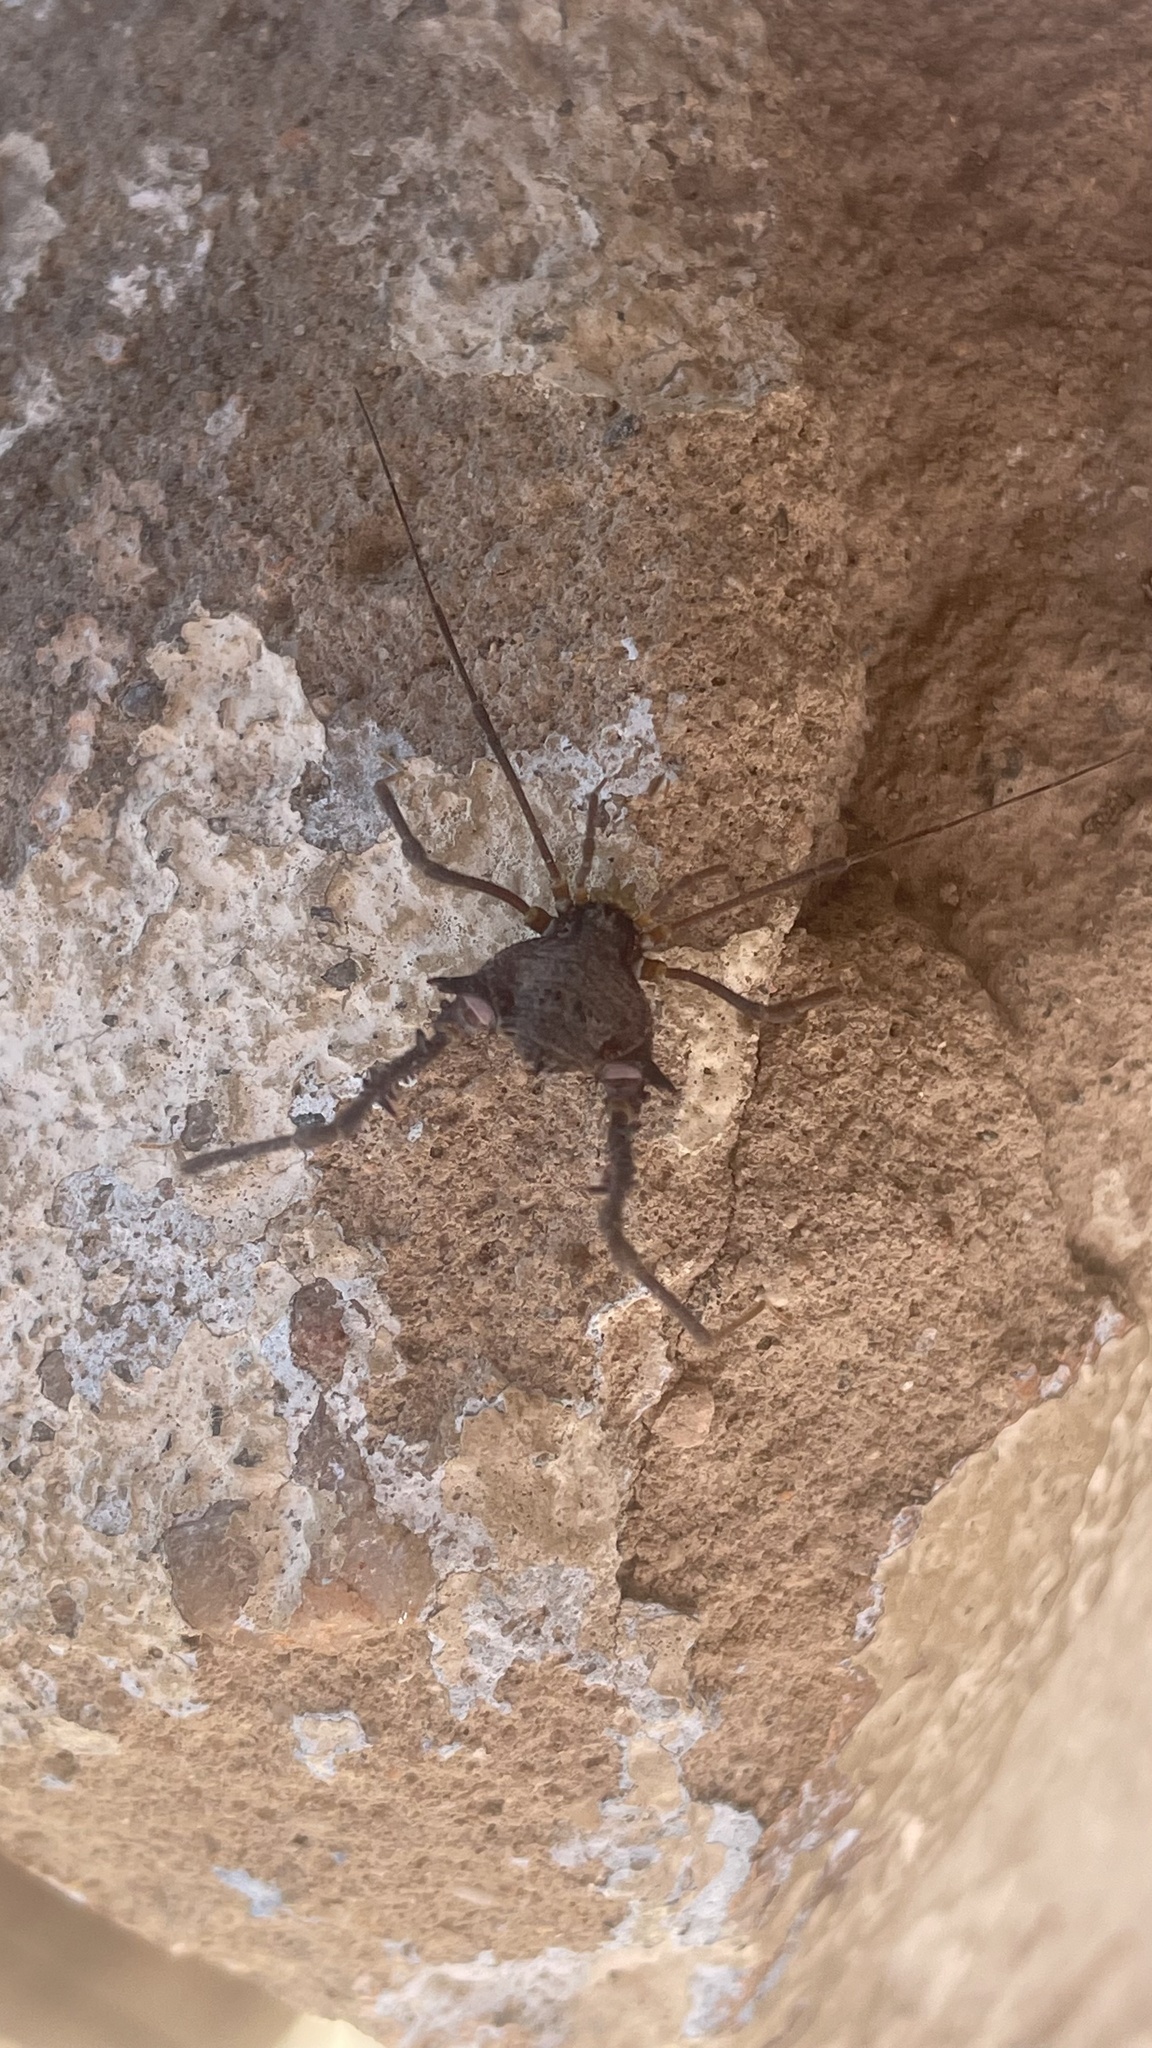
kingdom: Animalia
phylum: Arthropoda
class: Arachnida
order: Opiliones
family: Gonyleptidae
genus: Mischonyx
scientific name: Mischonyx squalidus
